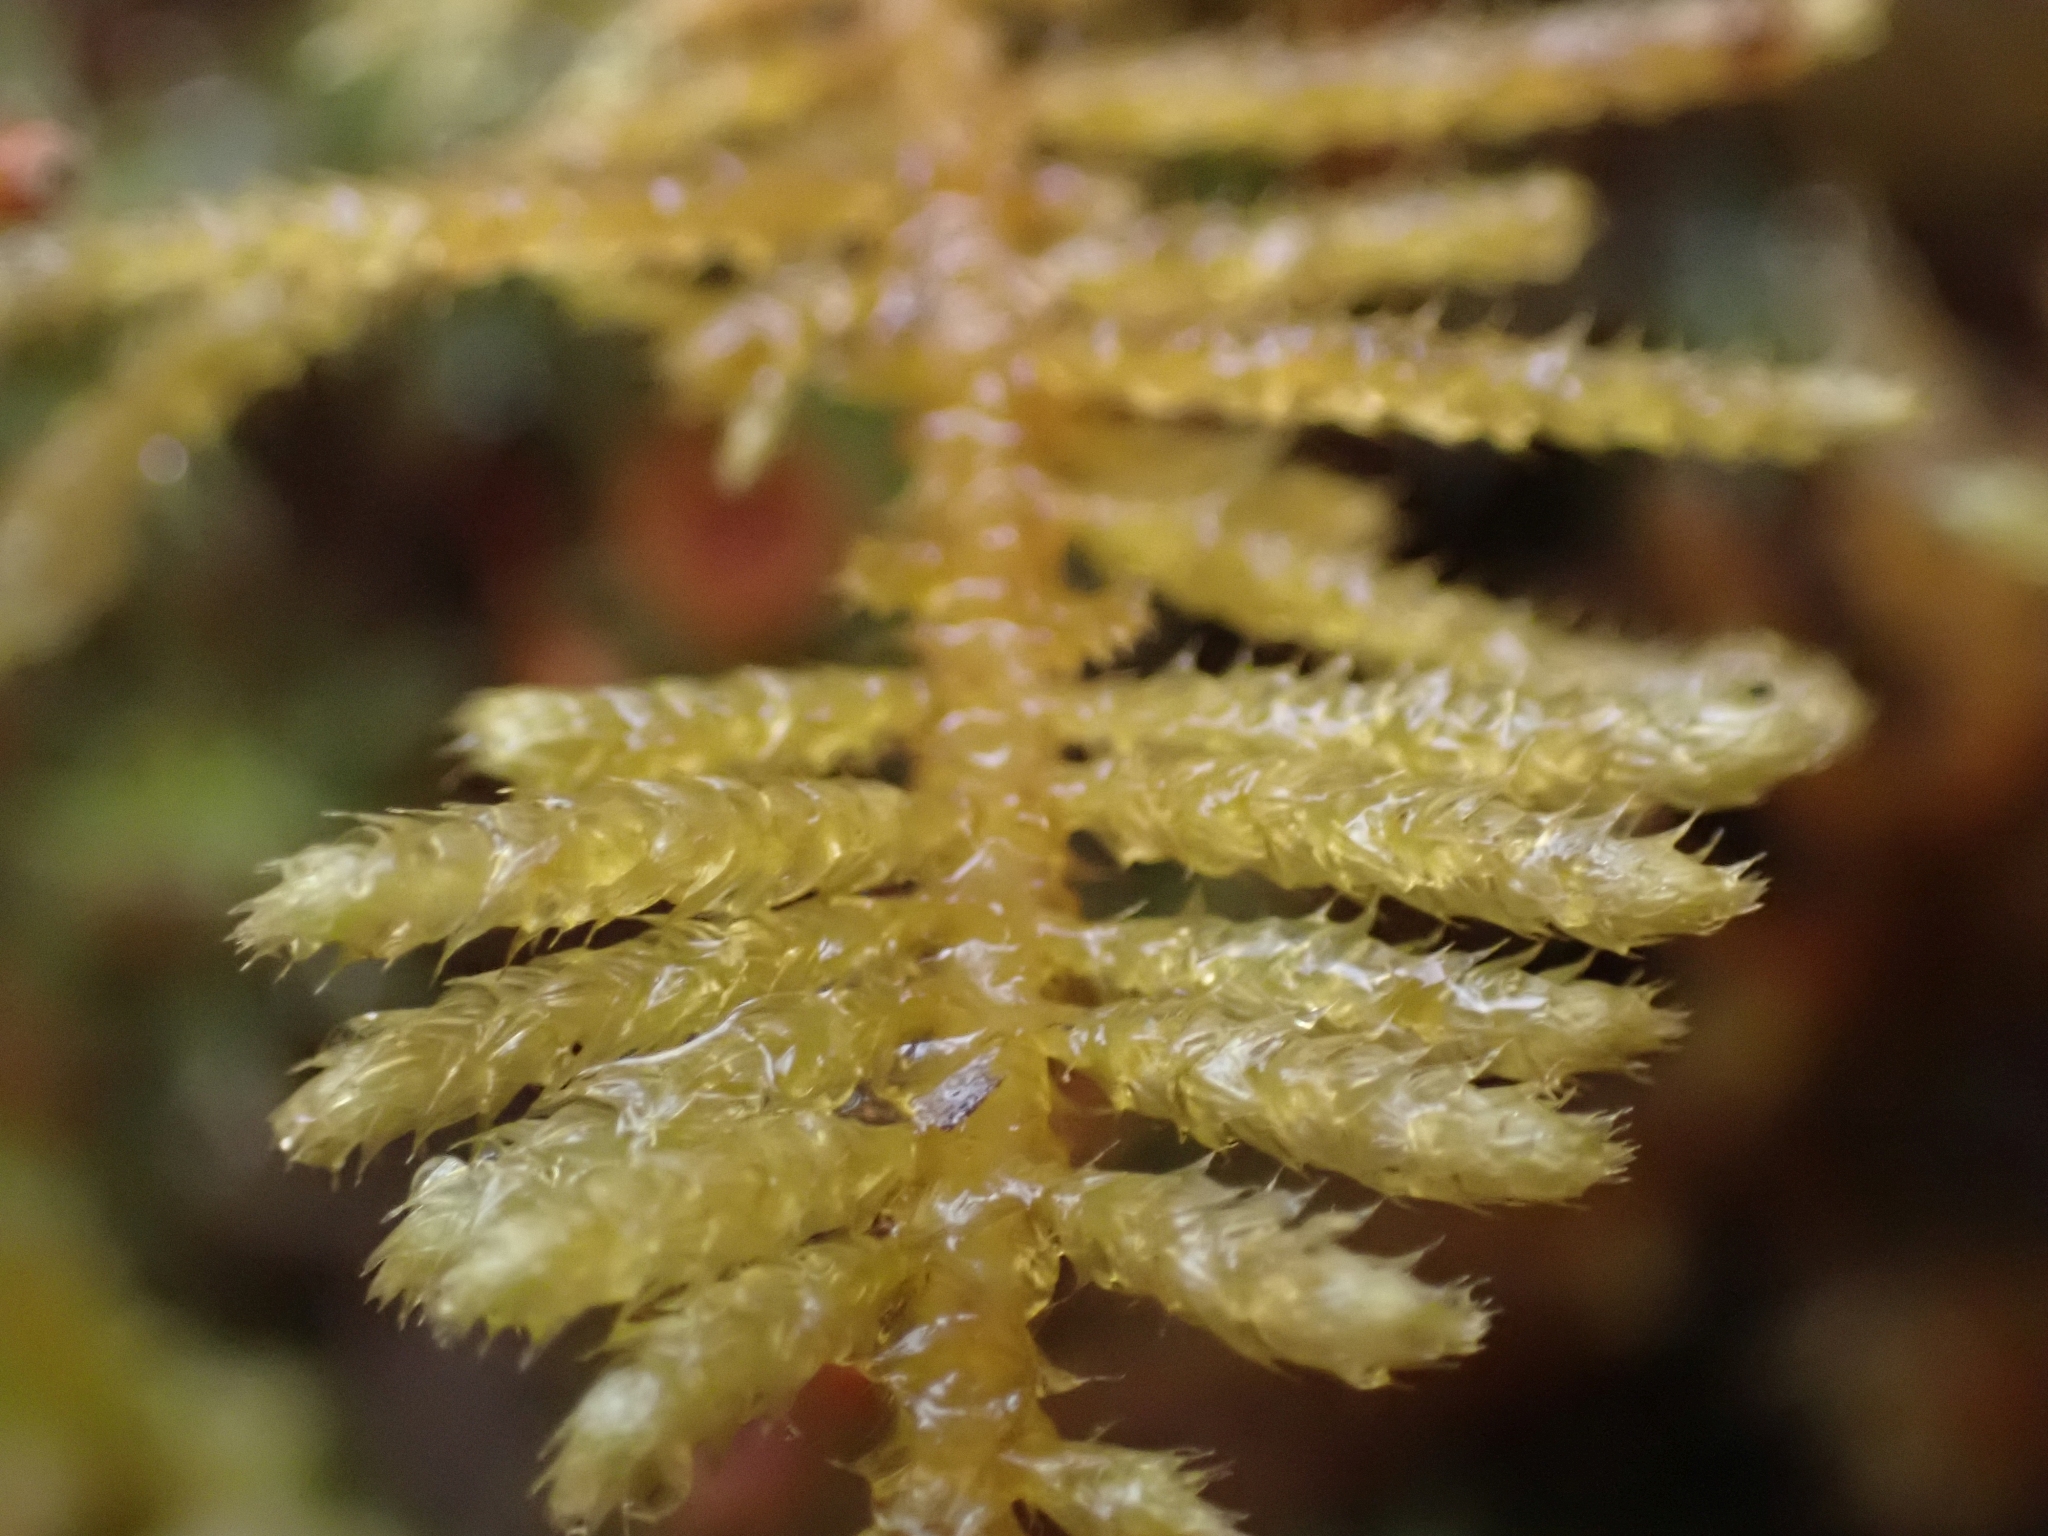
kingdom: Plantae
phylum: Bryophyta
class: Bryopsida
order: Hypnales
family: Brachytheciaceae
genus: Kindbergia
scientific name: Kindbergia oregana
